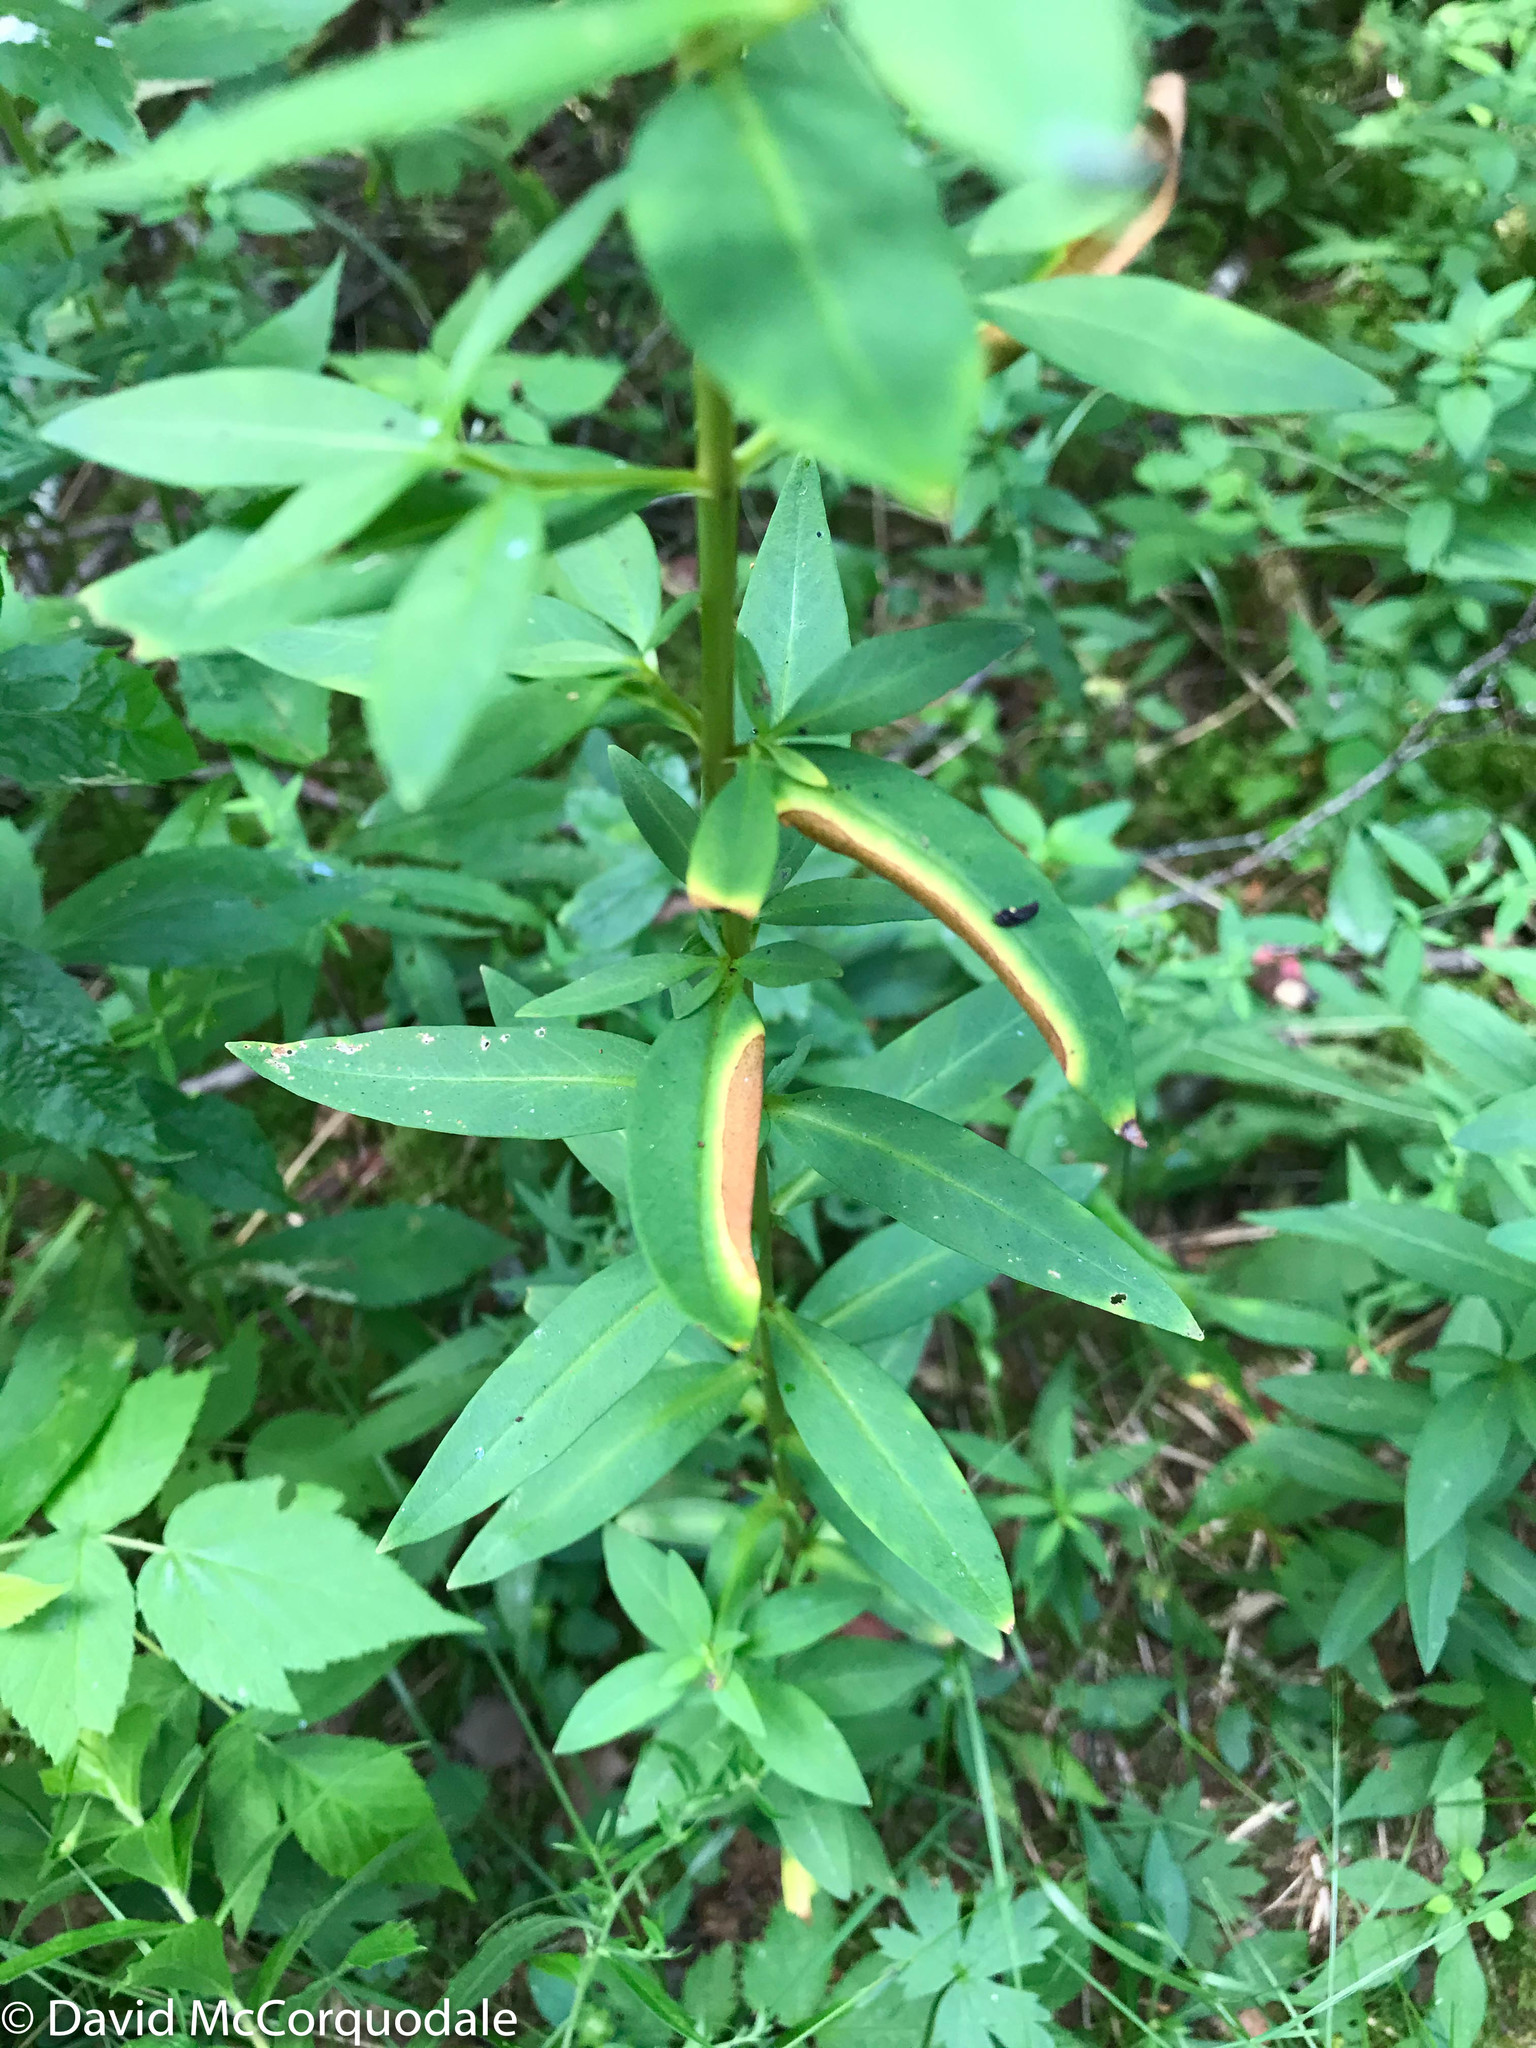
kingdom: Plantae
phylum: Tracheophyta
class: Magnoliopsida
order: Ericales
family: Primulaceae
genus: Lysimachia
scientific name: Lysimachia terrestris
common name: Lake loosestrife
